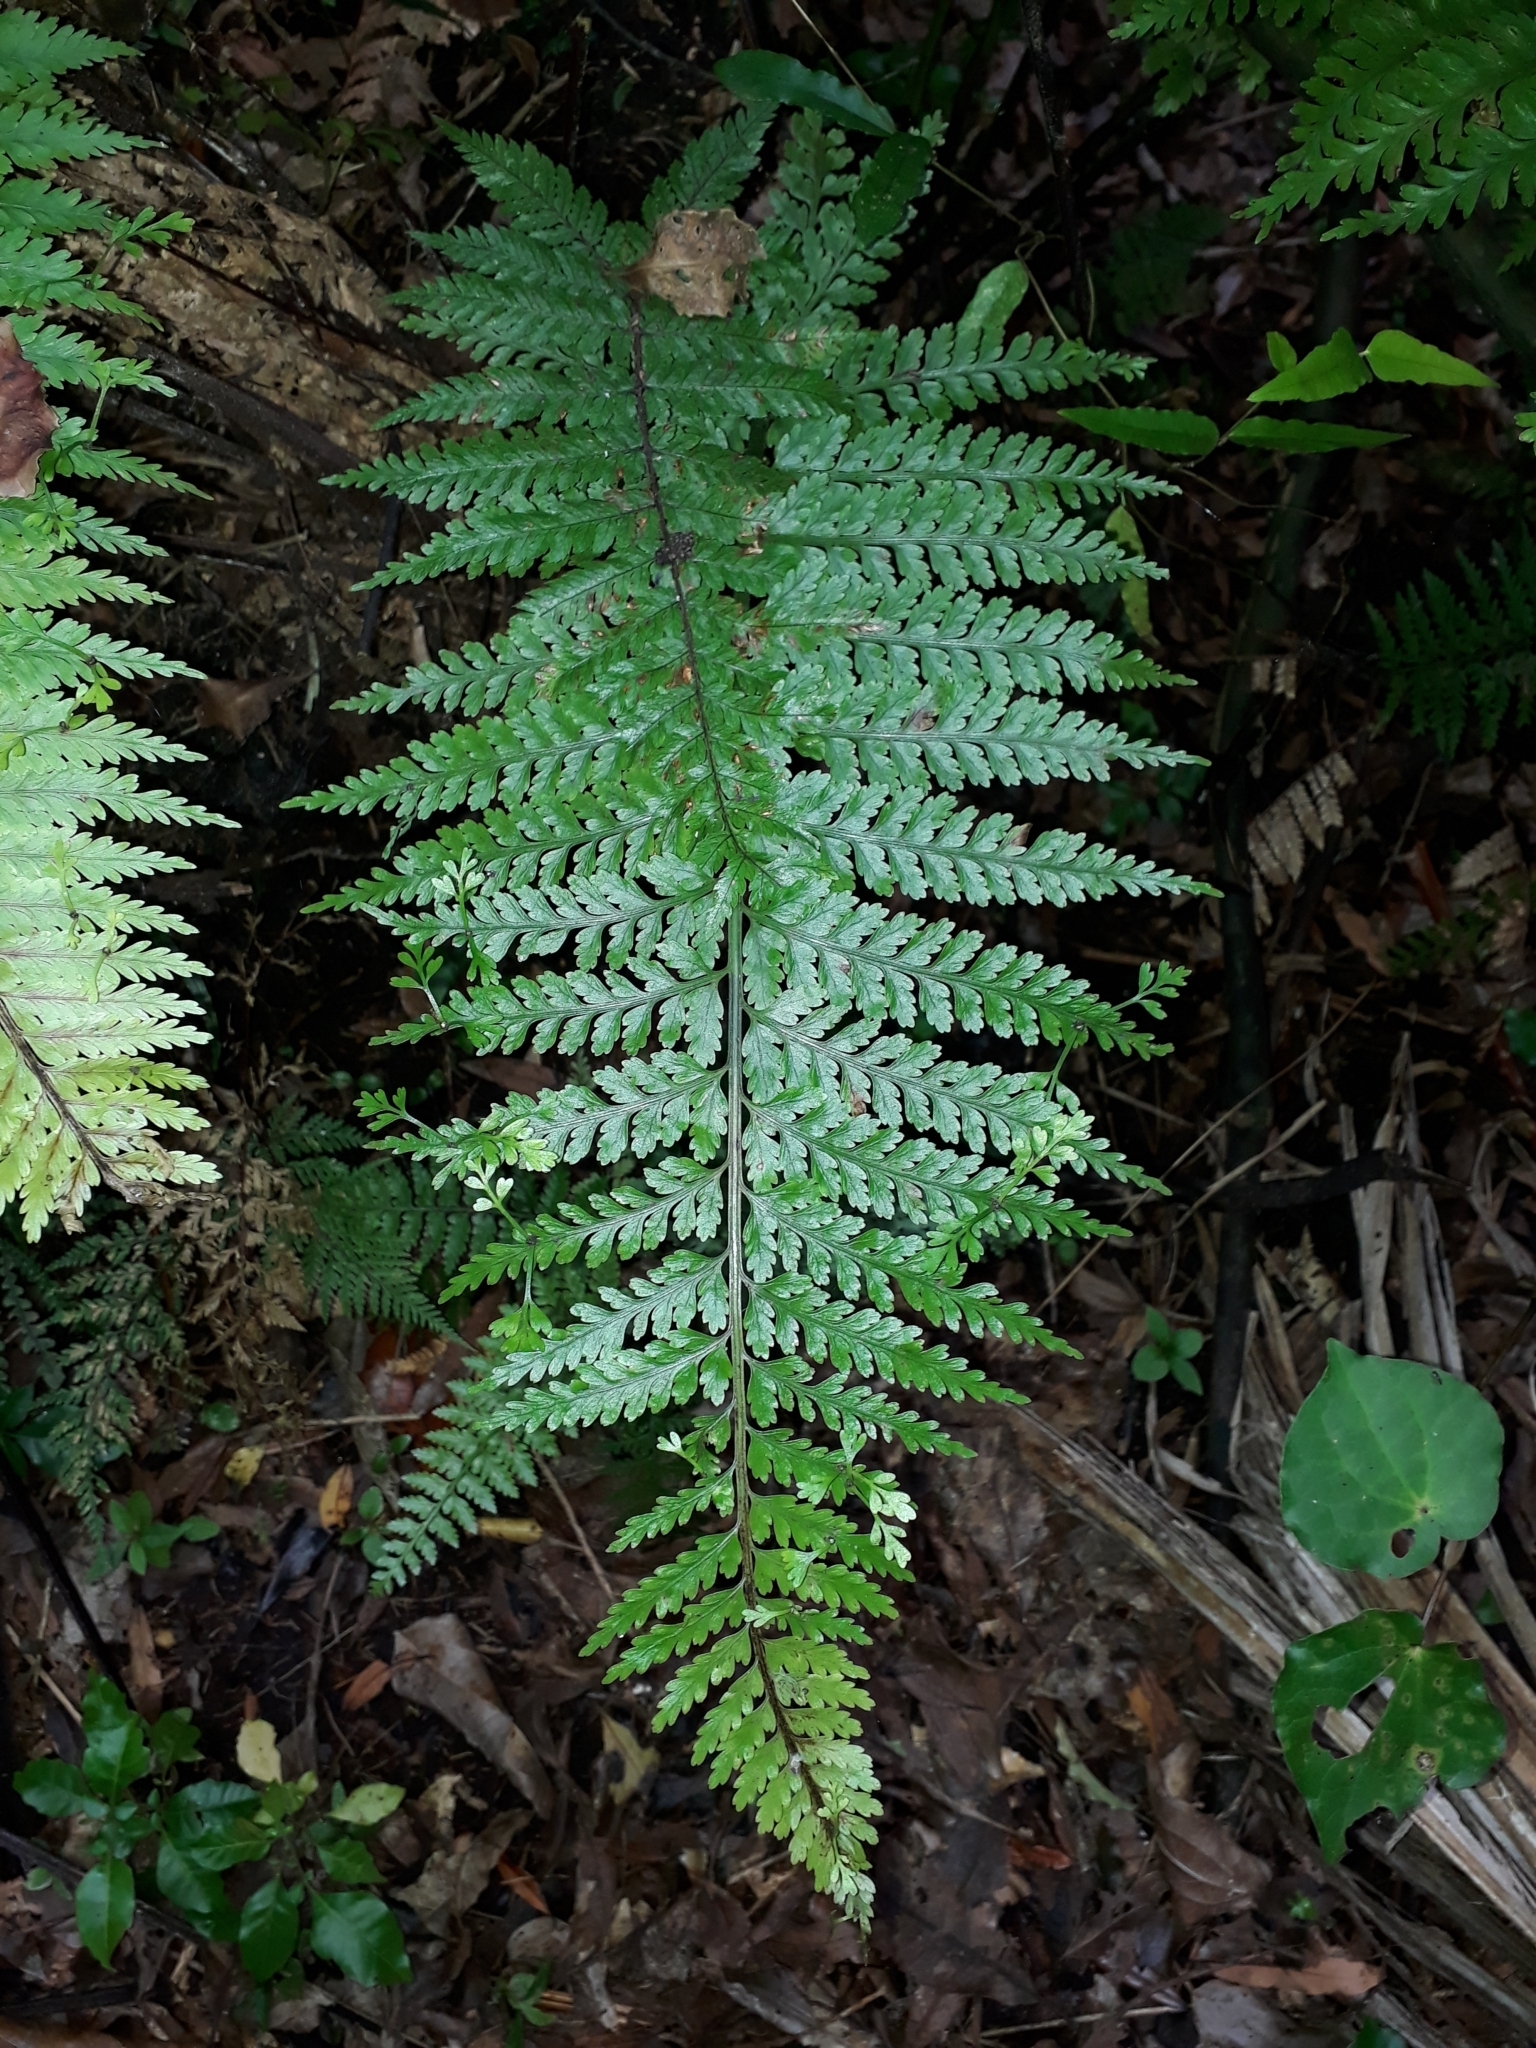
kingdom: Plantae
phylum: Tracheophyta
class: Polypodiopsida
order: Polypodiales
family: Aspleniaceae
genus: Asplenium
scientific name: Asplenium bulbiferum
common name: Mother fern
